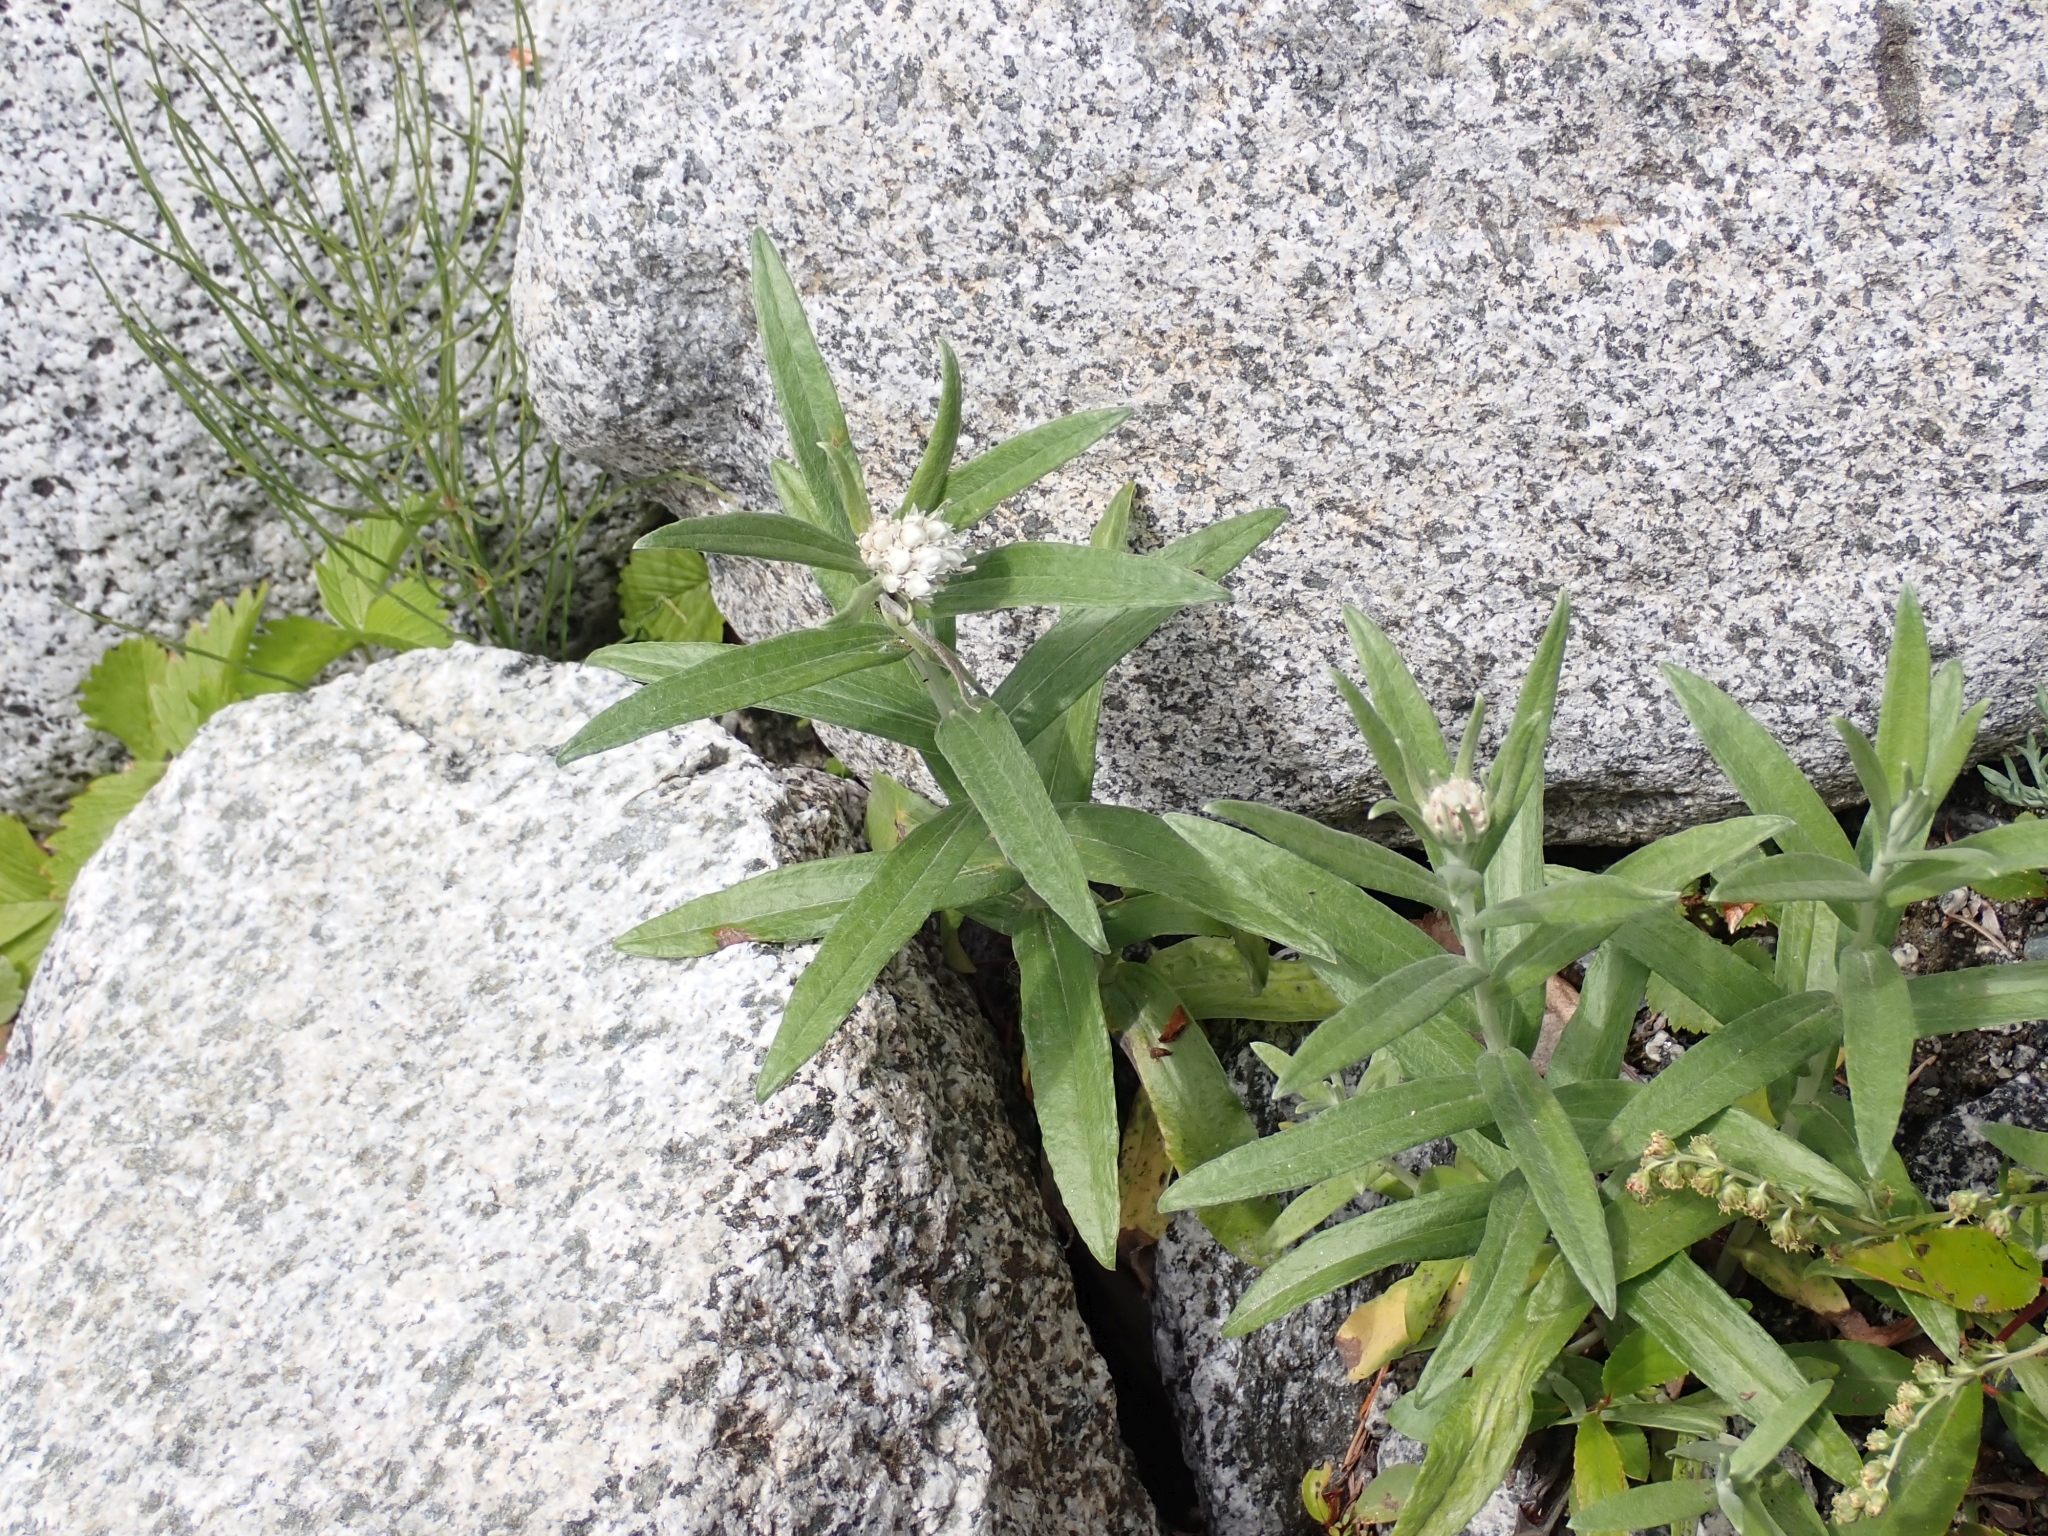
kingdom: Plantae
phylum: Tracheophyta
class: Magnoliopsida
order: Asterales
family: Asteraceae
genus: Anaphalis
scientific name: Anaphalis margaritacea
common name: Pearly everlasting
